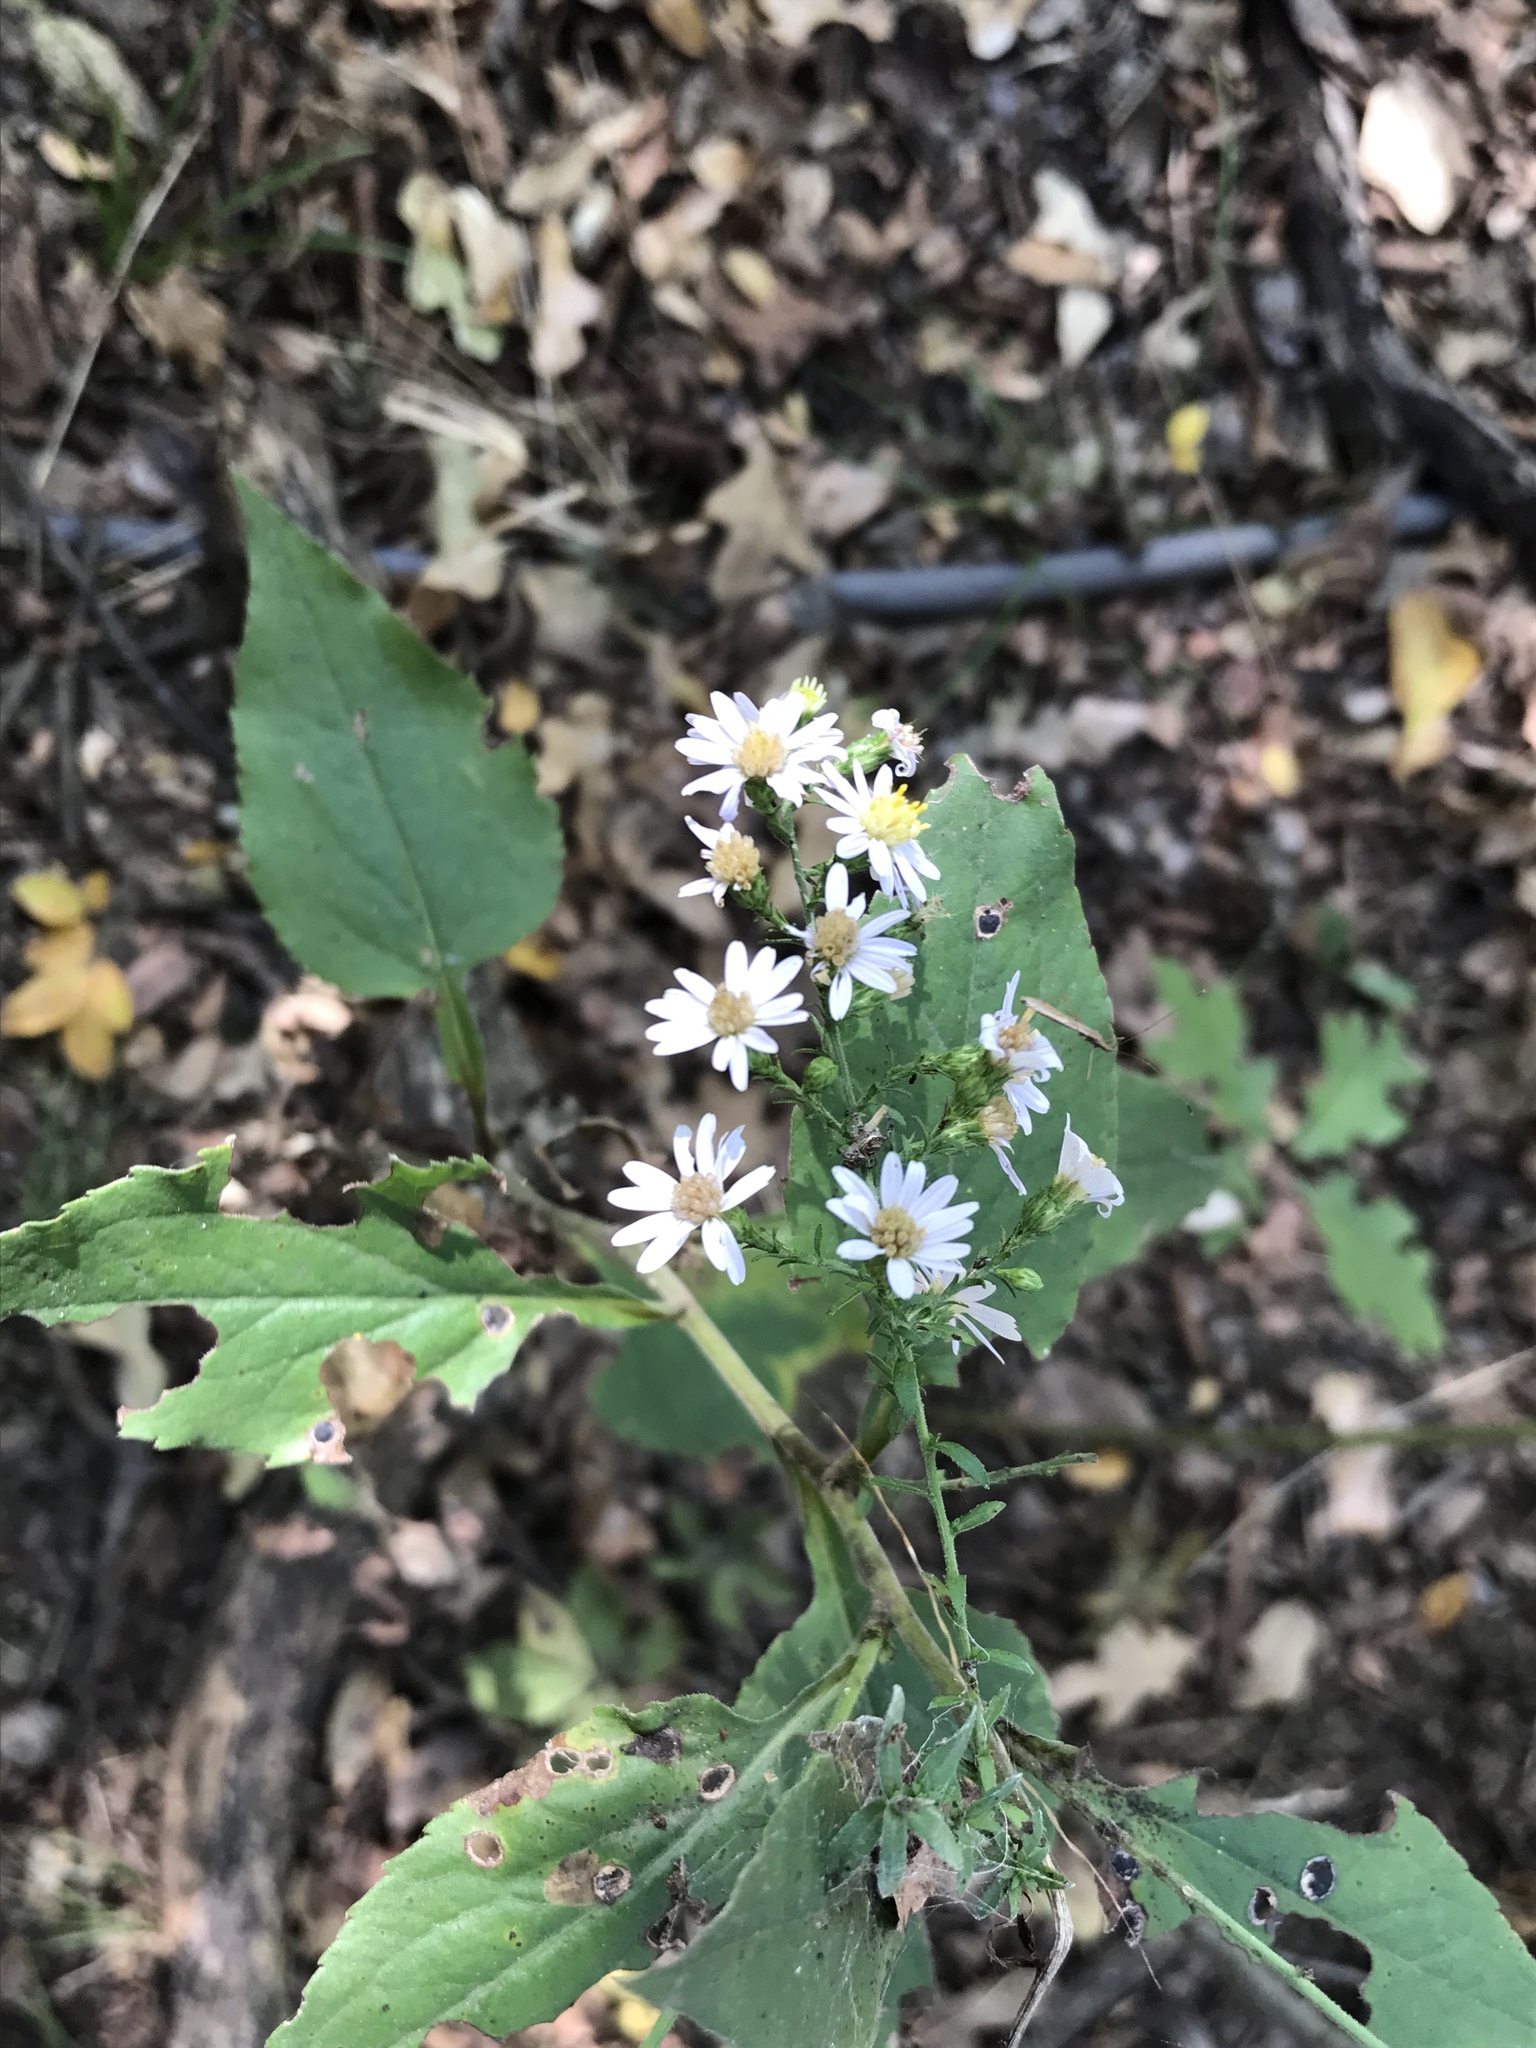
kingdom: Plantae
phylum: Tracheophyta
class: Magnoliopsida
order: Asterales
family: Asteraceae
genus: Symphyotrichum
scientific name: Symphyotrichum drummondii
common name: Drummond's aster
